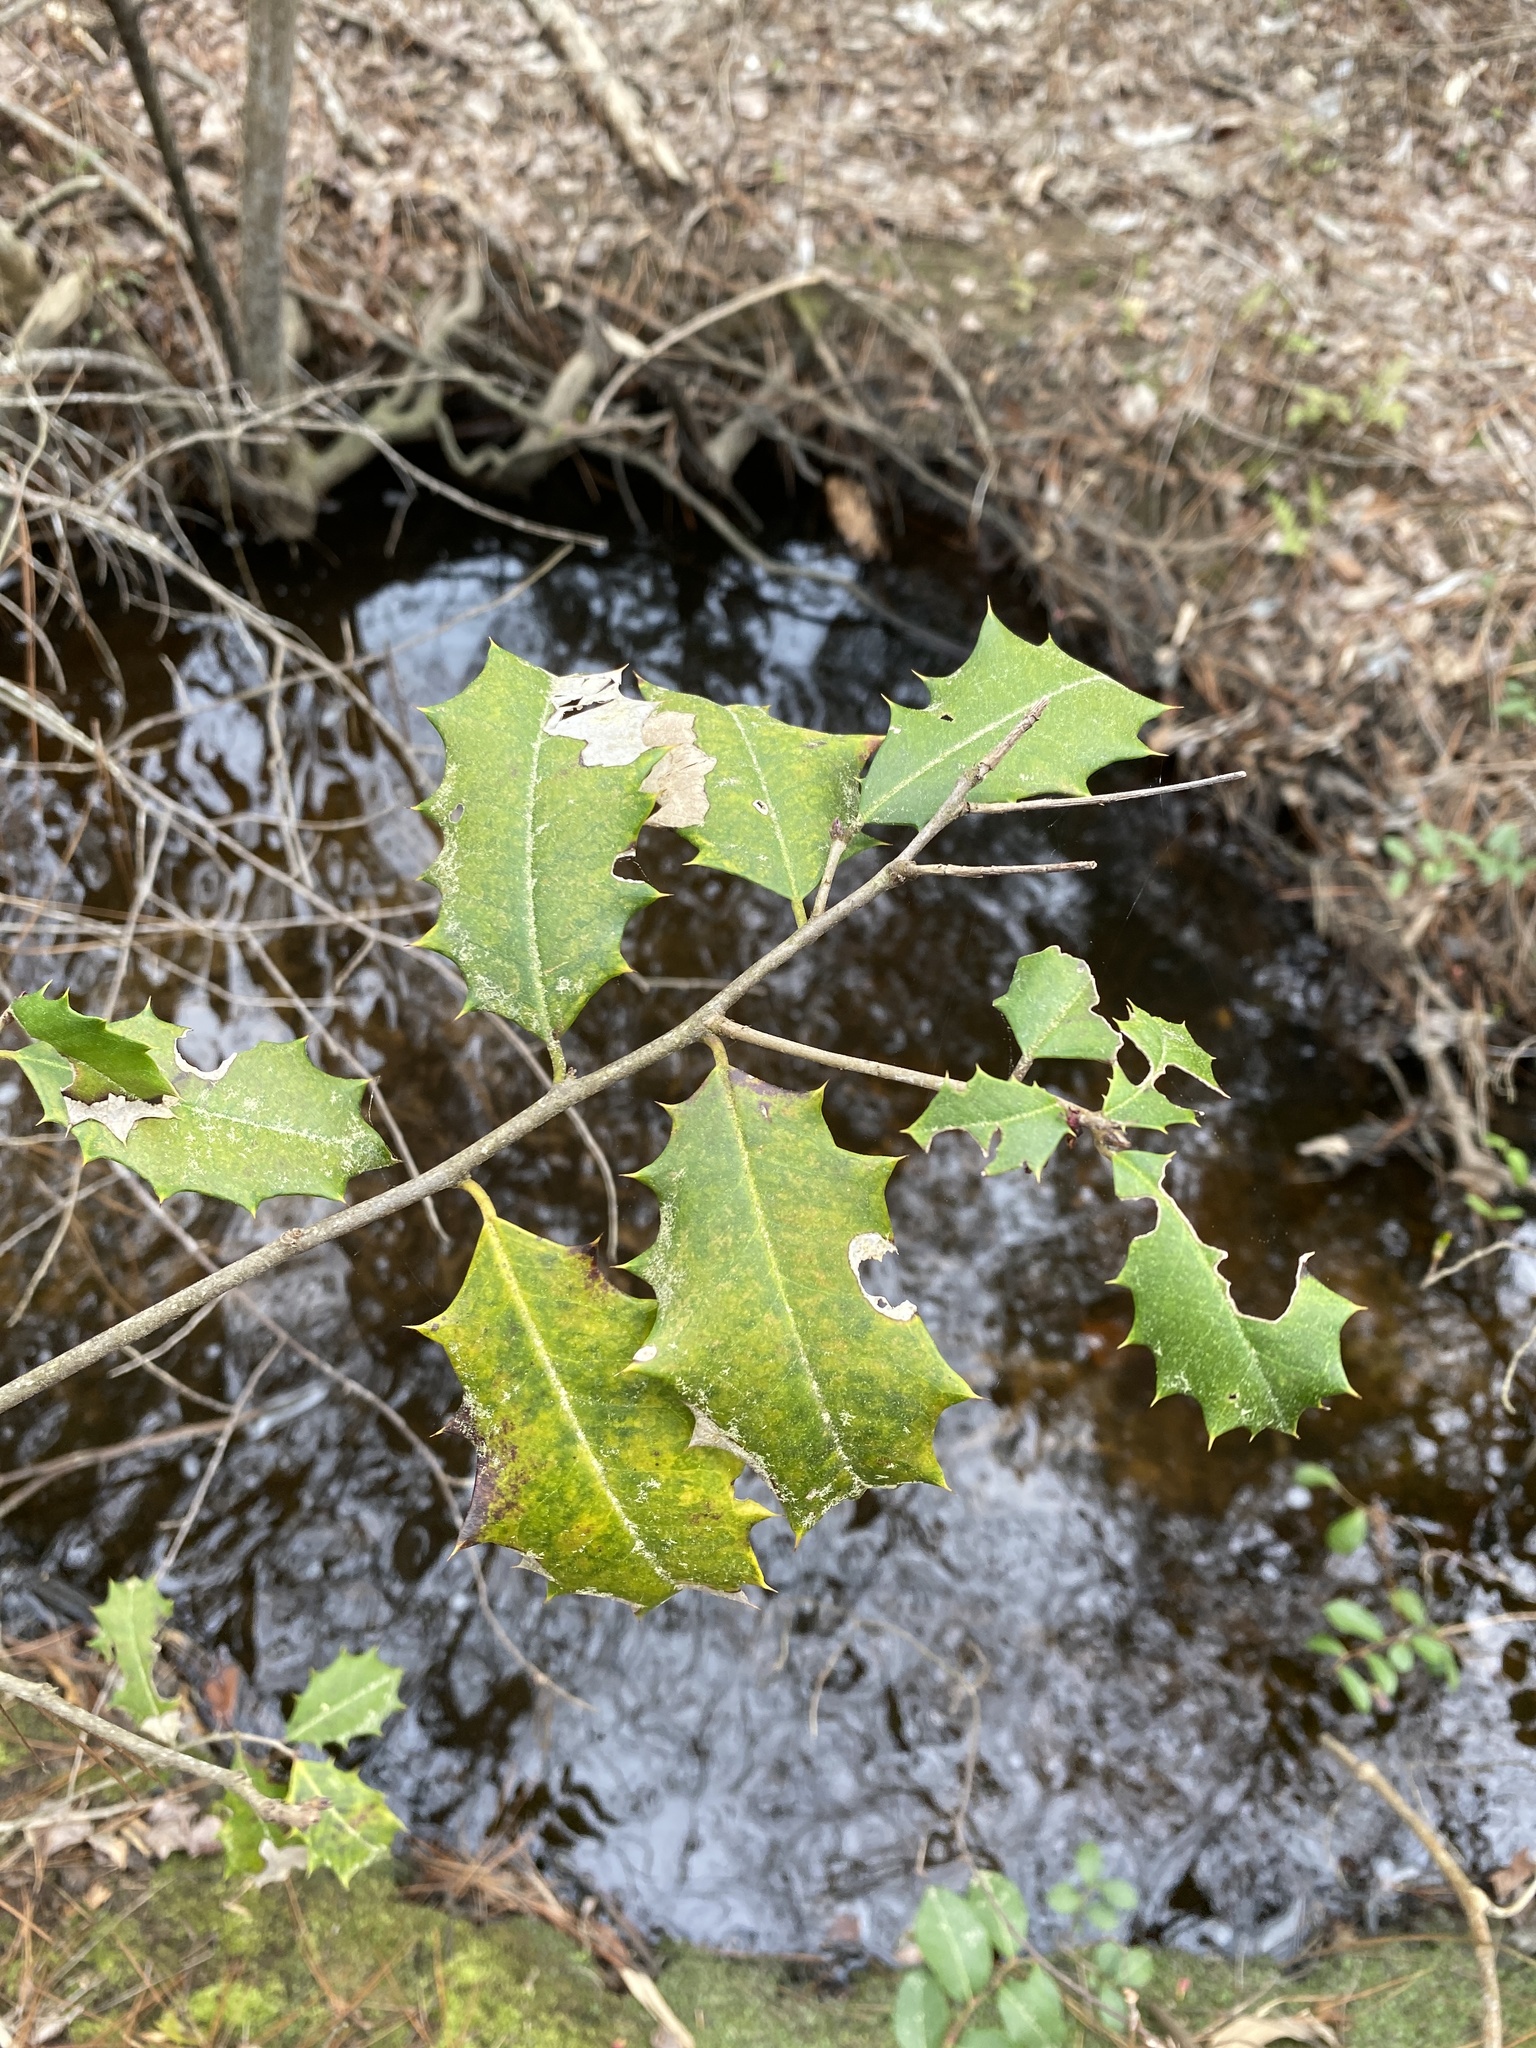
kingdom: Plantae
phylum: Tracheophyta
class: Magnoliopsida
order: Aquifoliales
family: Aquifoliaceae
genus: Ilex
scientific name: Ilex opaca
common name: American holly
